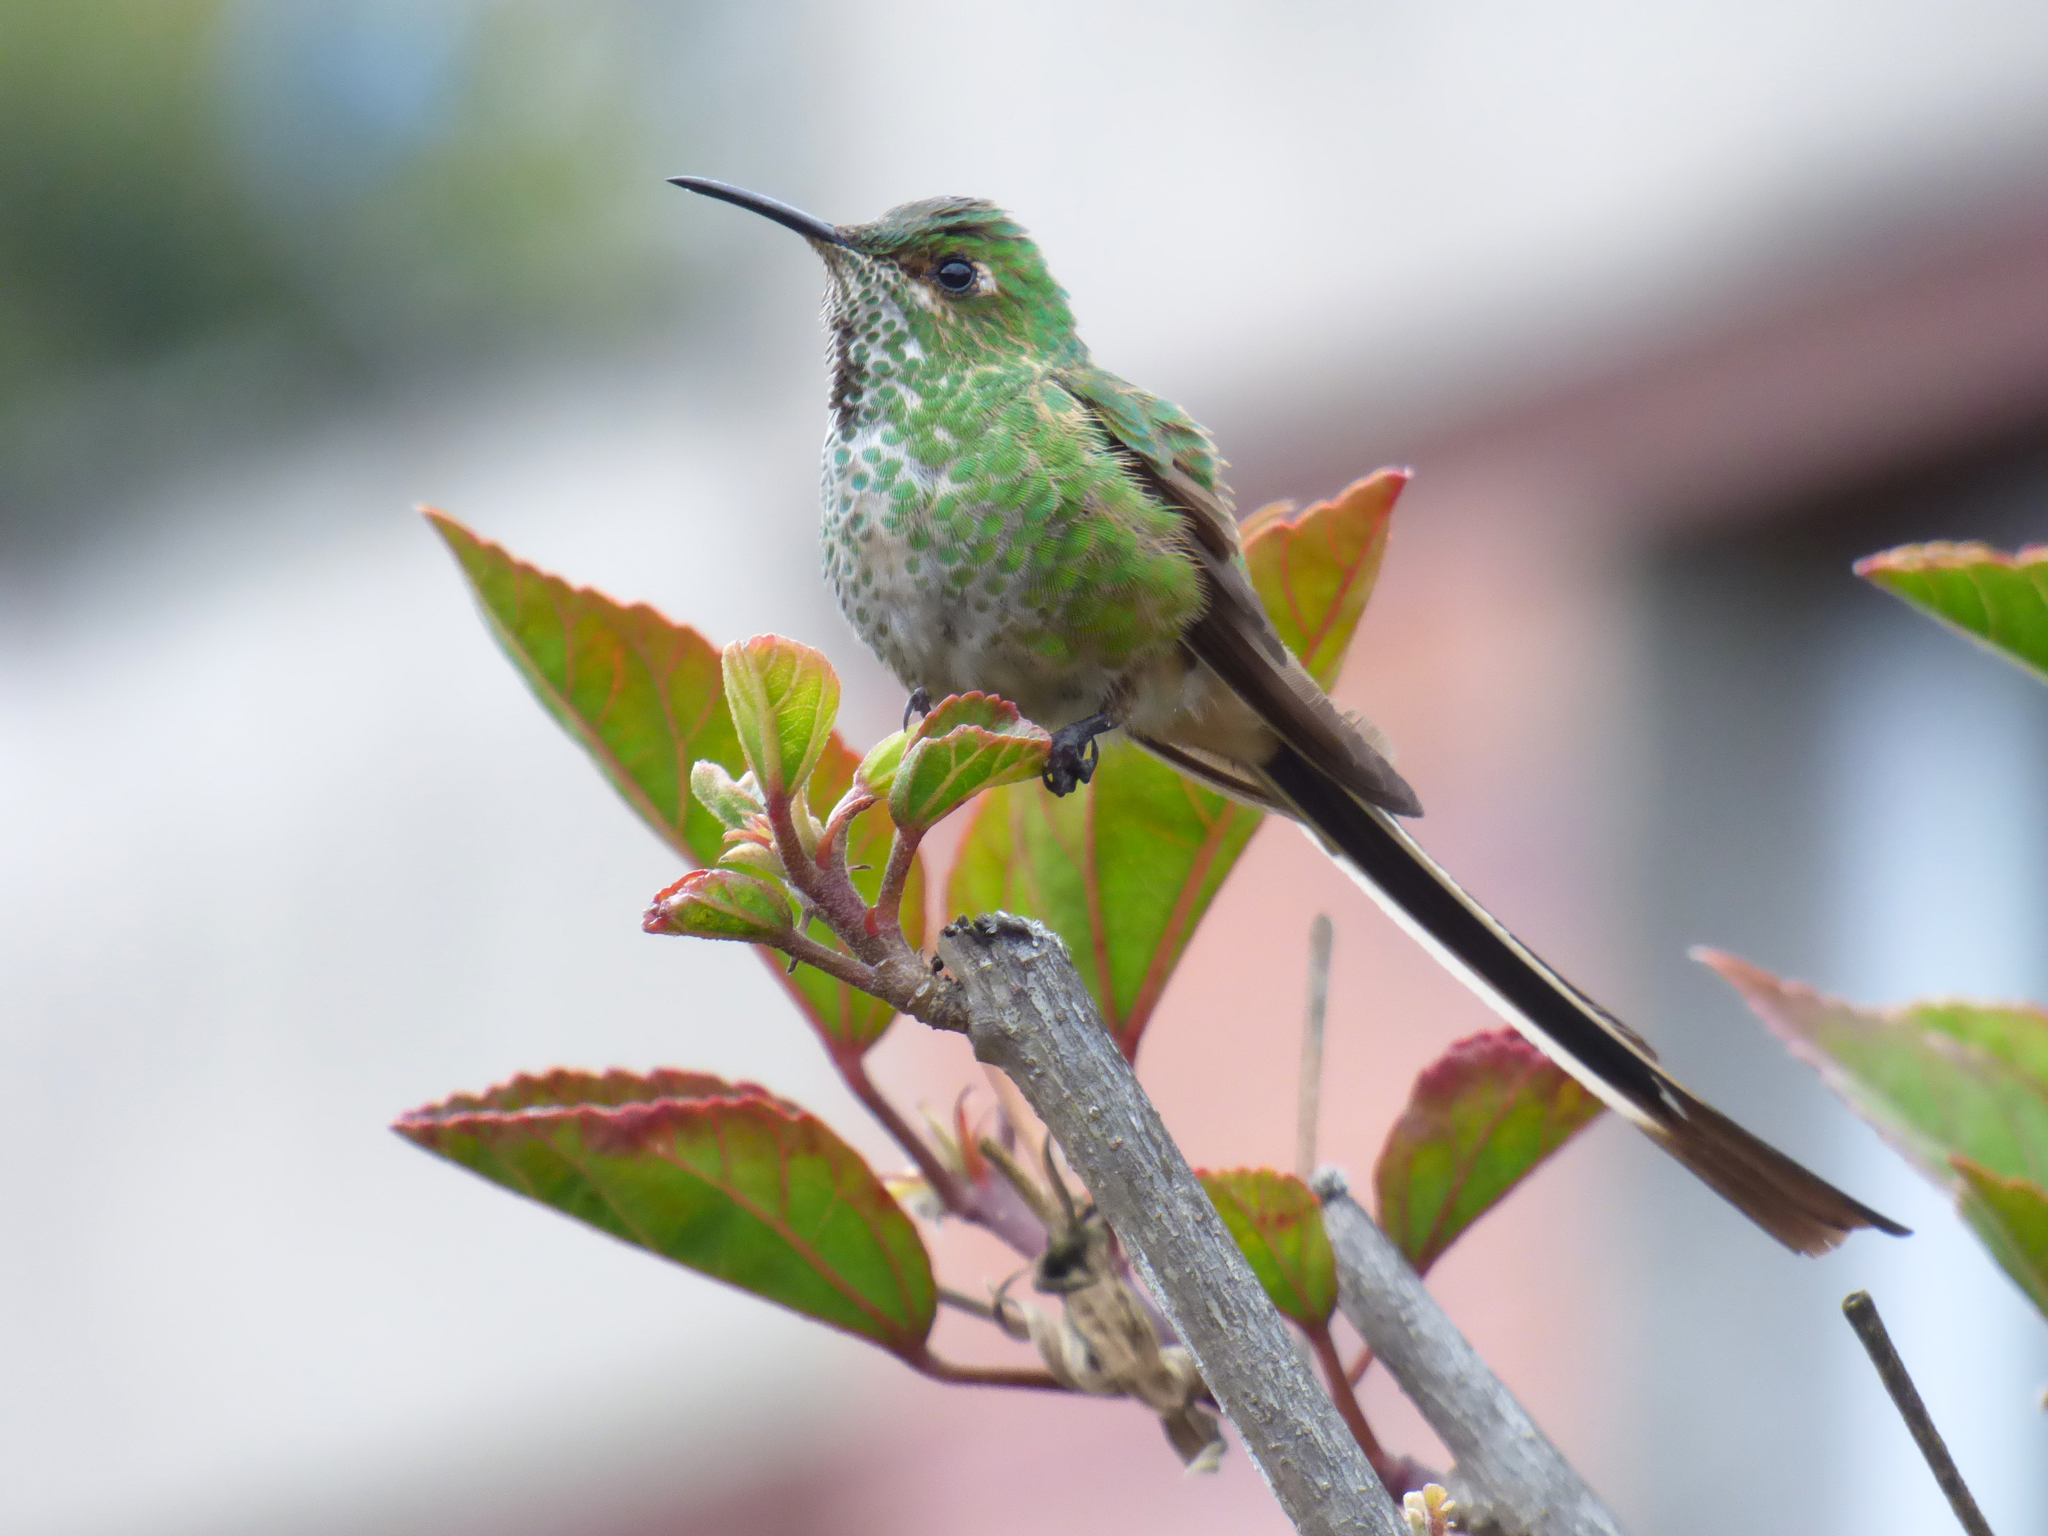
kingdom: Animalia
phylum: Chordata
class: Aves
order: Apodiformes
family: Trochilidae
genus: Lesbia
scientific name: Lesbia victoriae
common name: Black-tailed trainbearer
